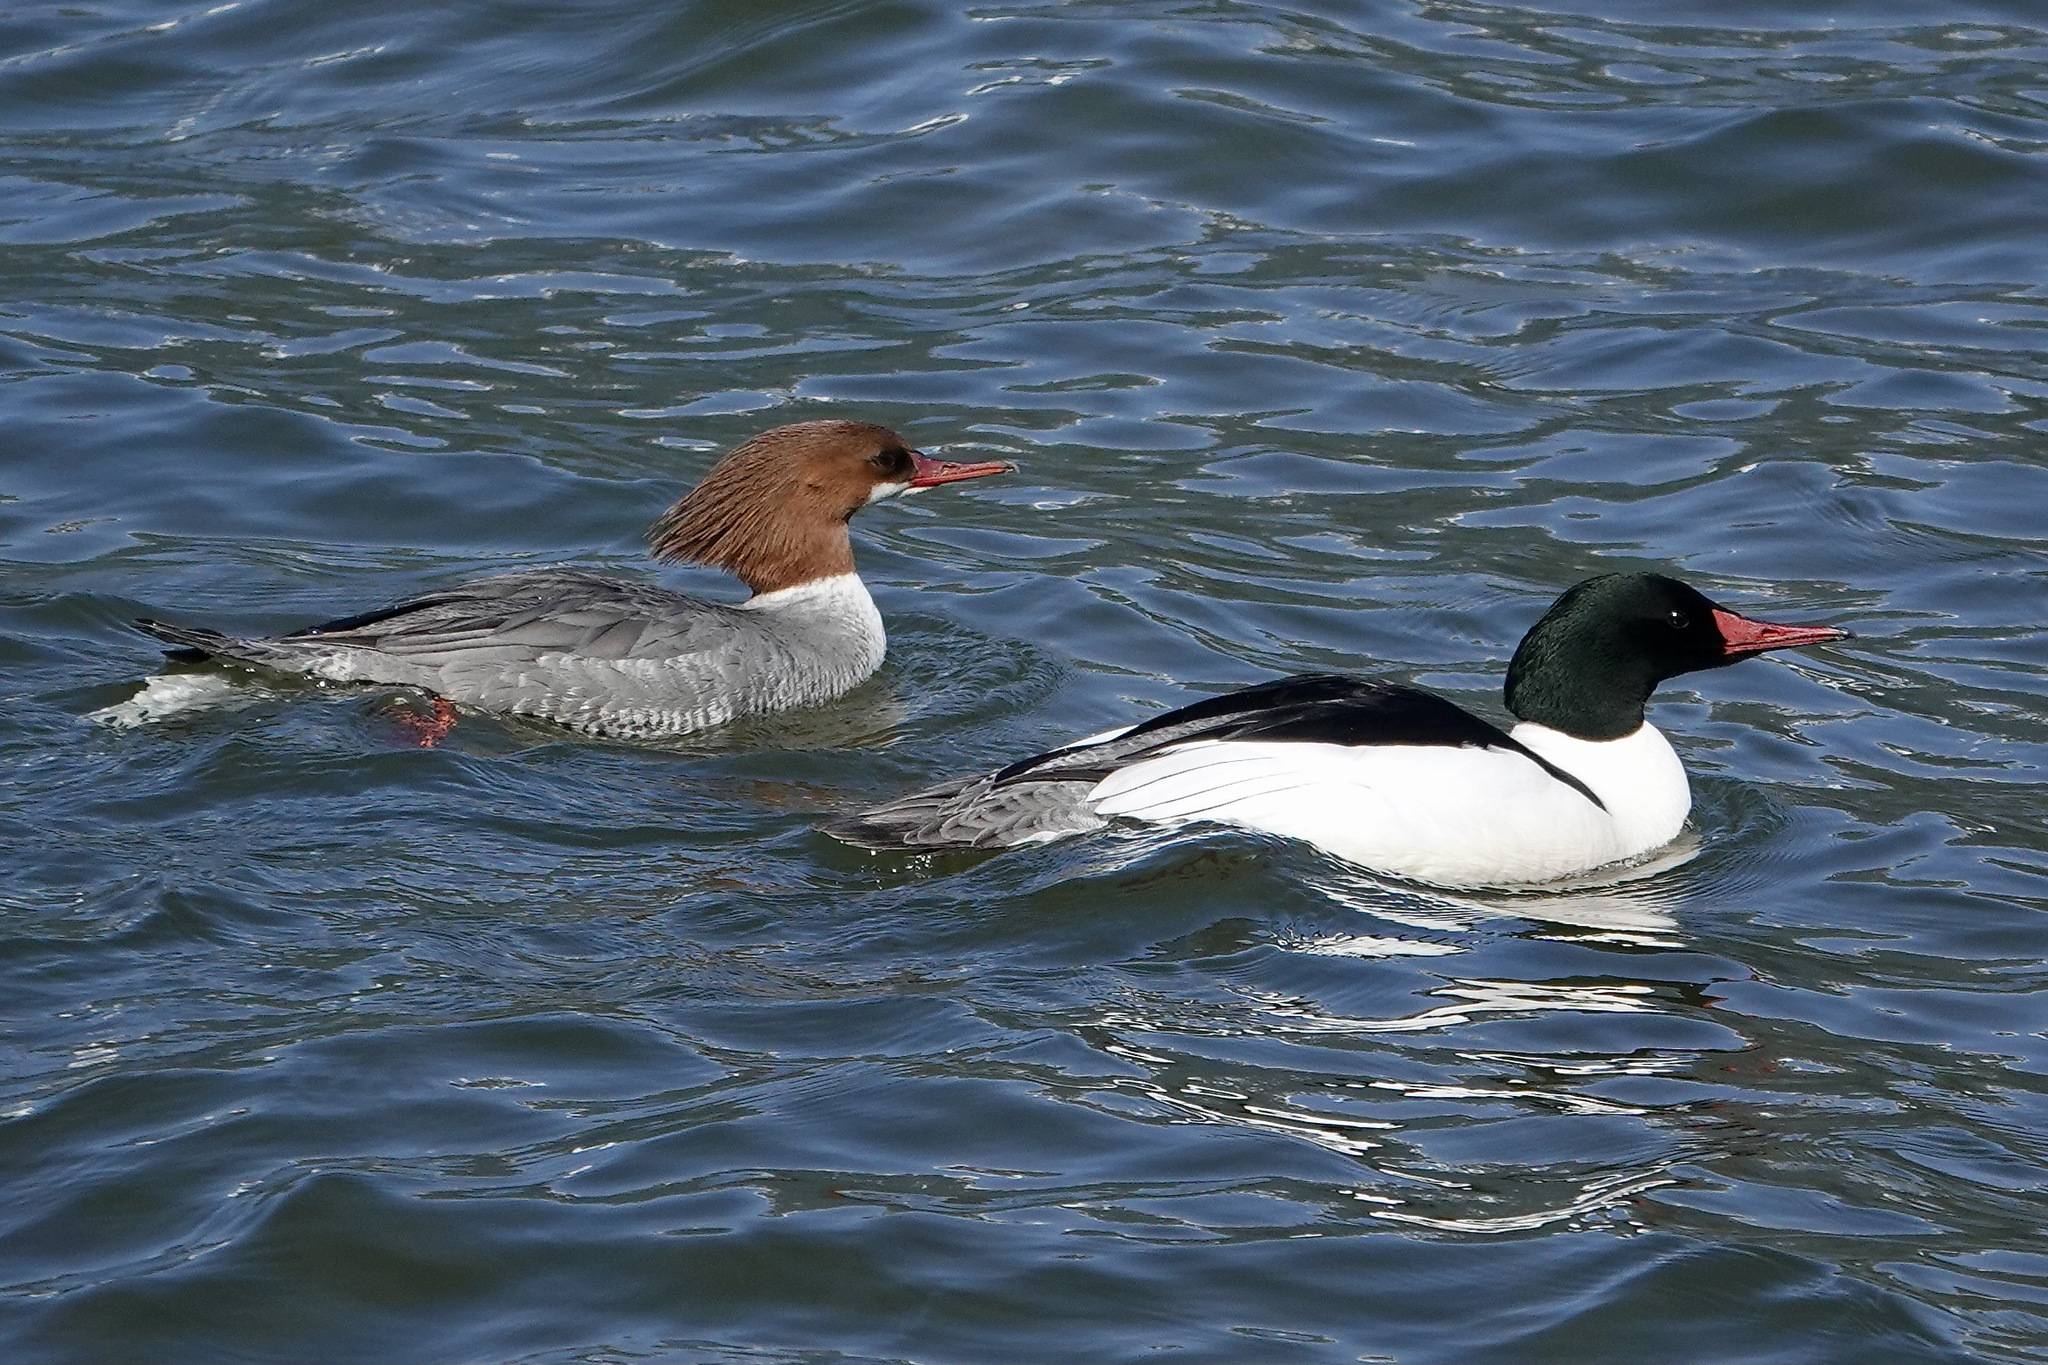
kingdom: Animalia
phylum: Chordata
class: Aves
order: Anseriformes
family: Anatidae
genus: Mergus
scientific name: Mergus merganser
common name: Common merganser
